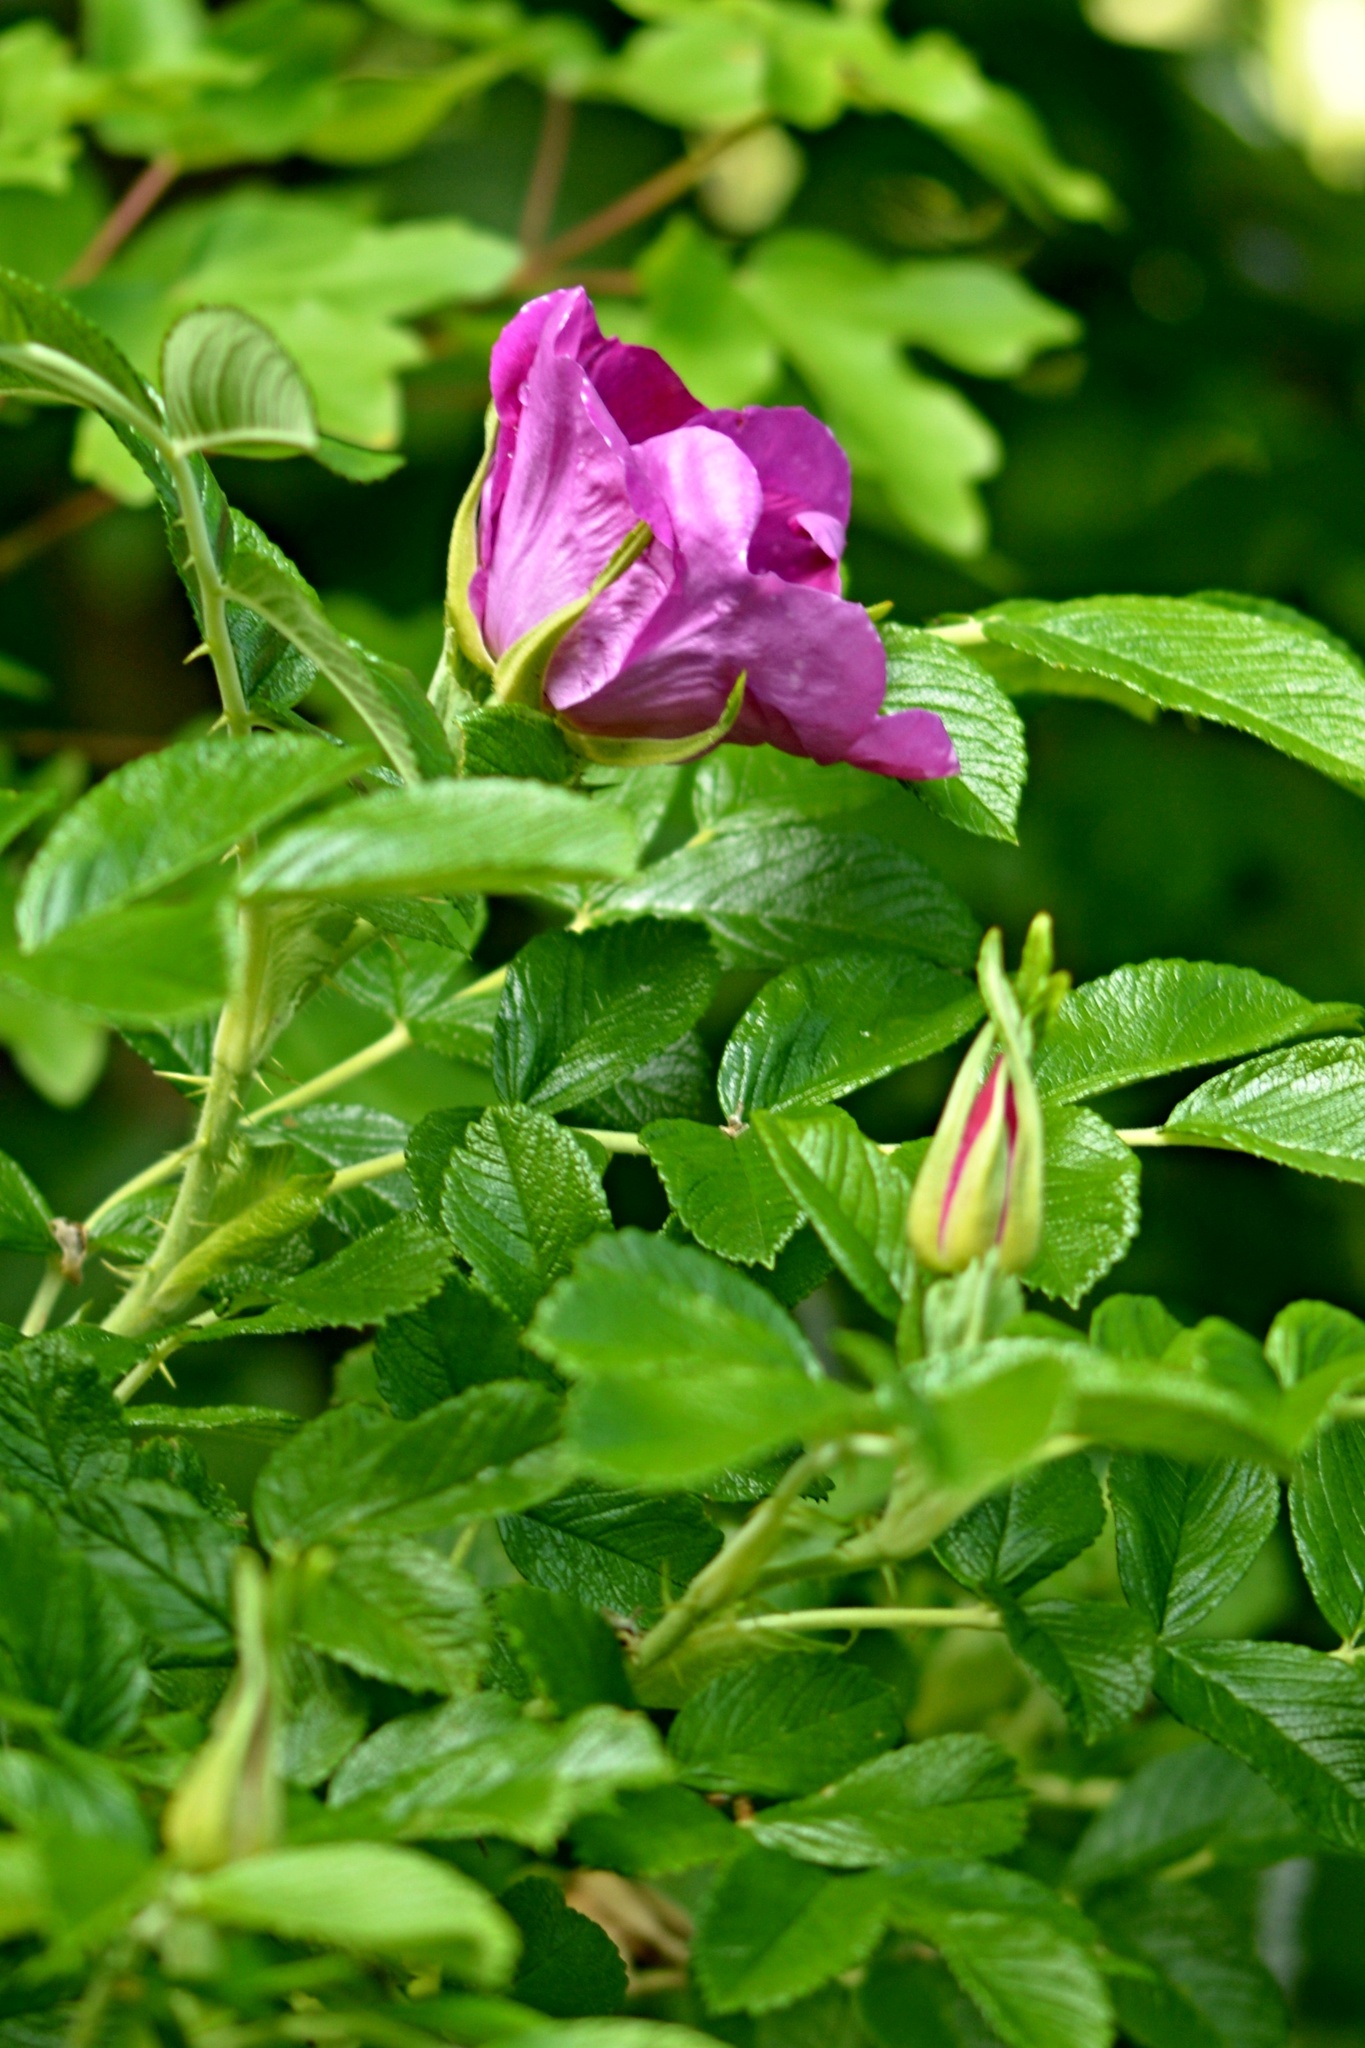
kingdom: Plantae
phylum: Tracheophyta
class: Magnoliopsida
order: Rosales
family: Rosaceae
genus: Rosa
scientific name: Rosa rugosa
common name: Japanese rose
